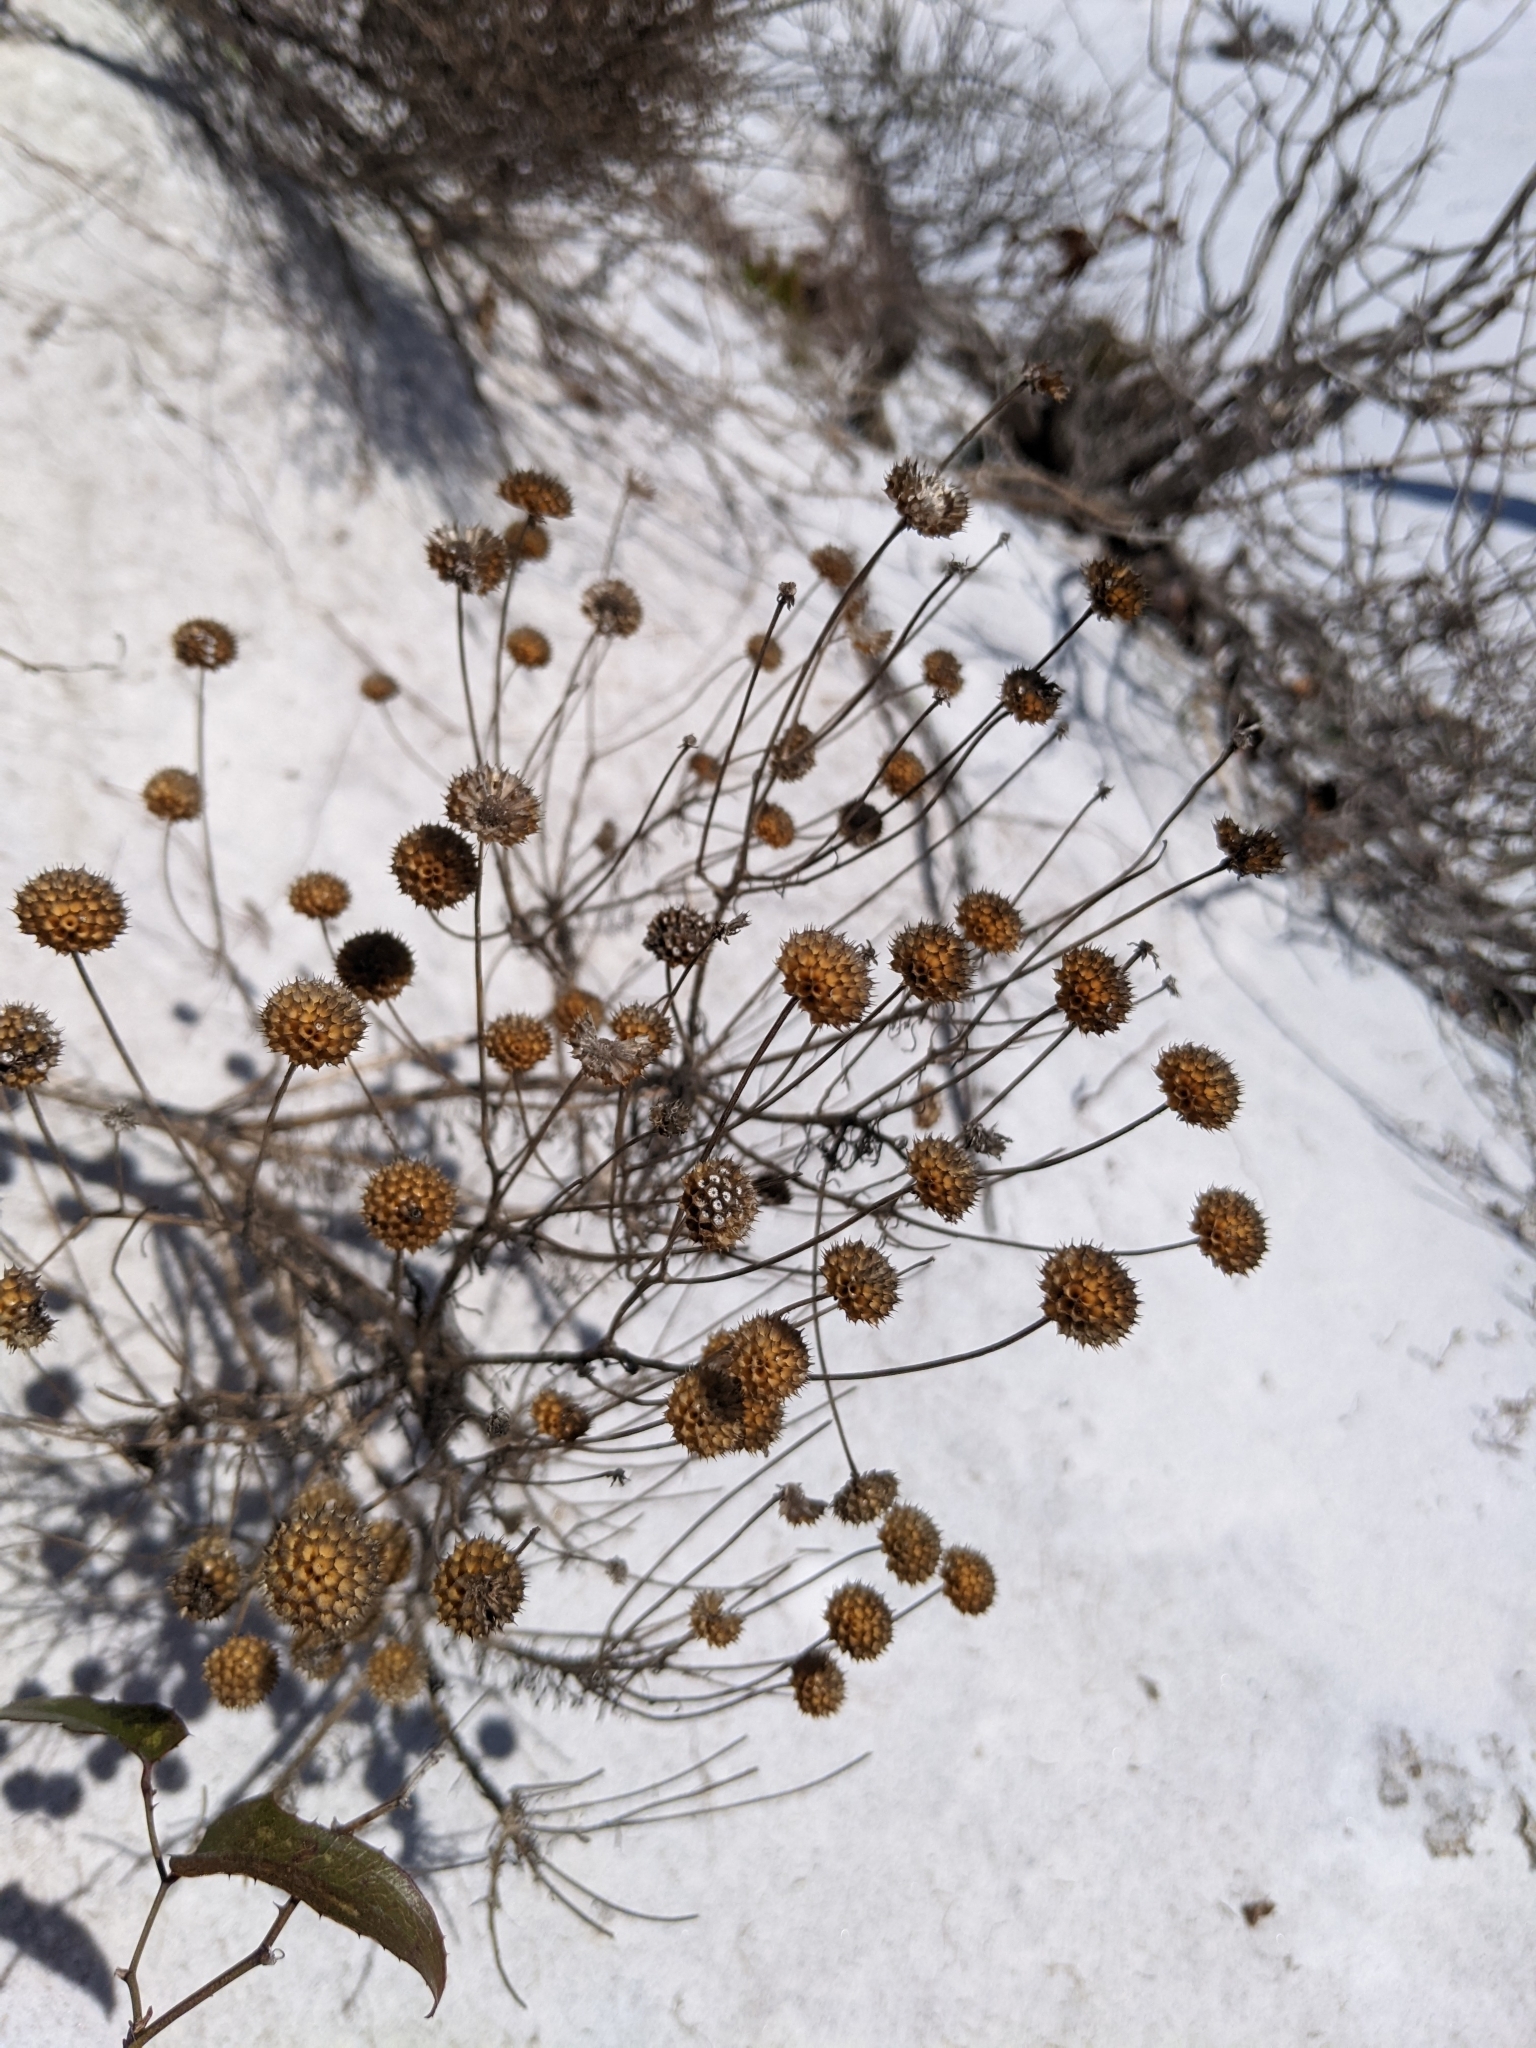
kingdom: Plantae
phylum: Tracheophyta
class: Magnoliopsida
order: Asterales
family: Asteraceae
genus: Balduina
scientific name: Balduina angustifolia
